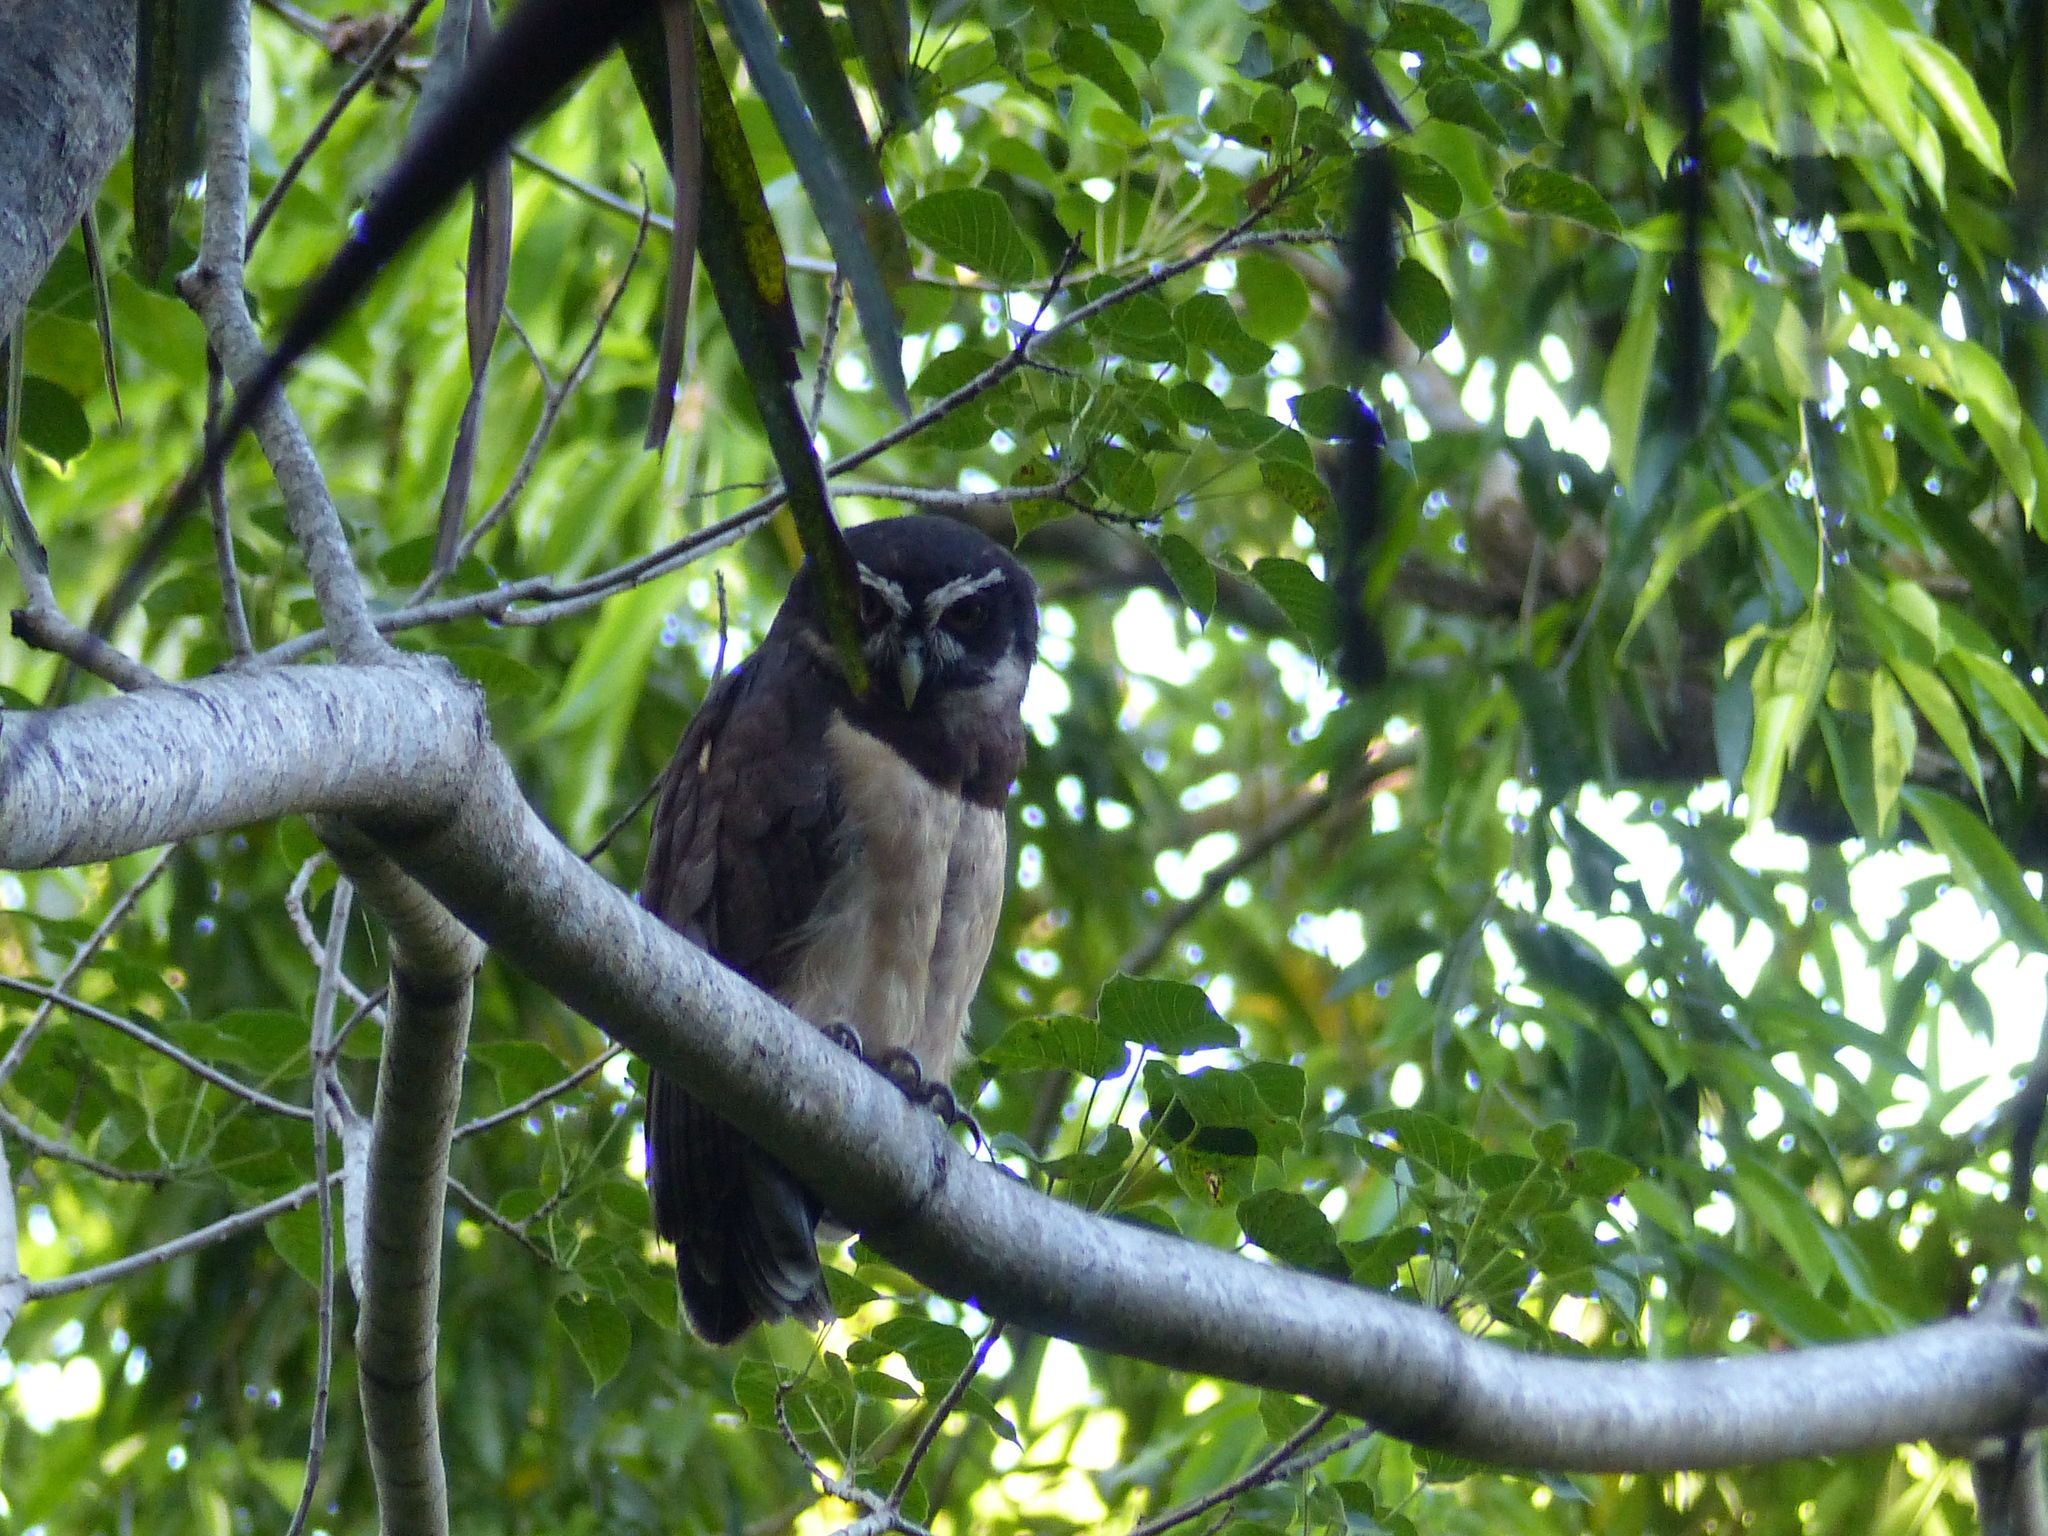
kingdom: Animalia
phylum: Chordata
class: Aves
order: Strigiformes
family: Strigidae
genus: Pulsatrix
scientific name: Pulsatrix perspicillata
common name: Spectacled owl
